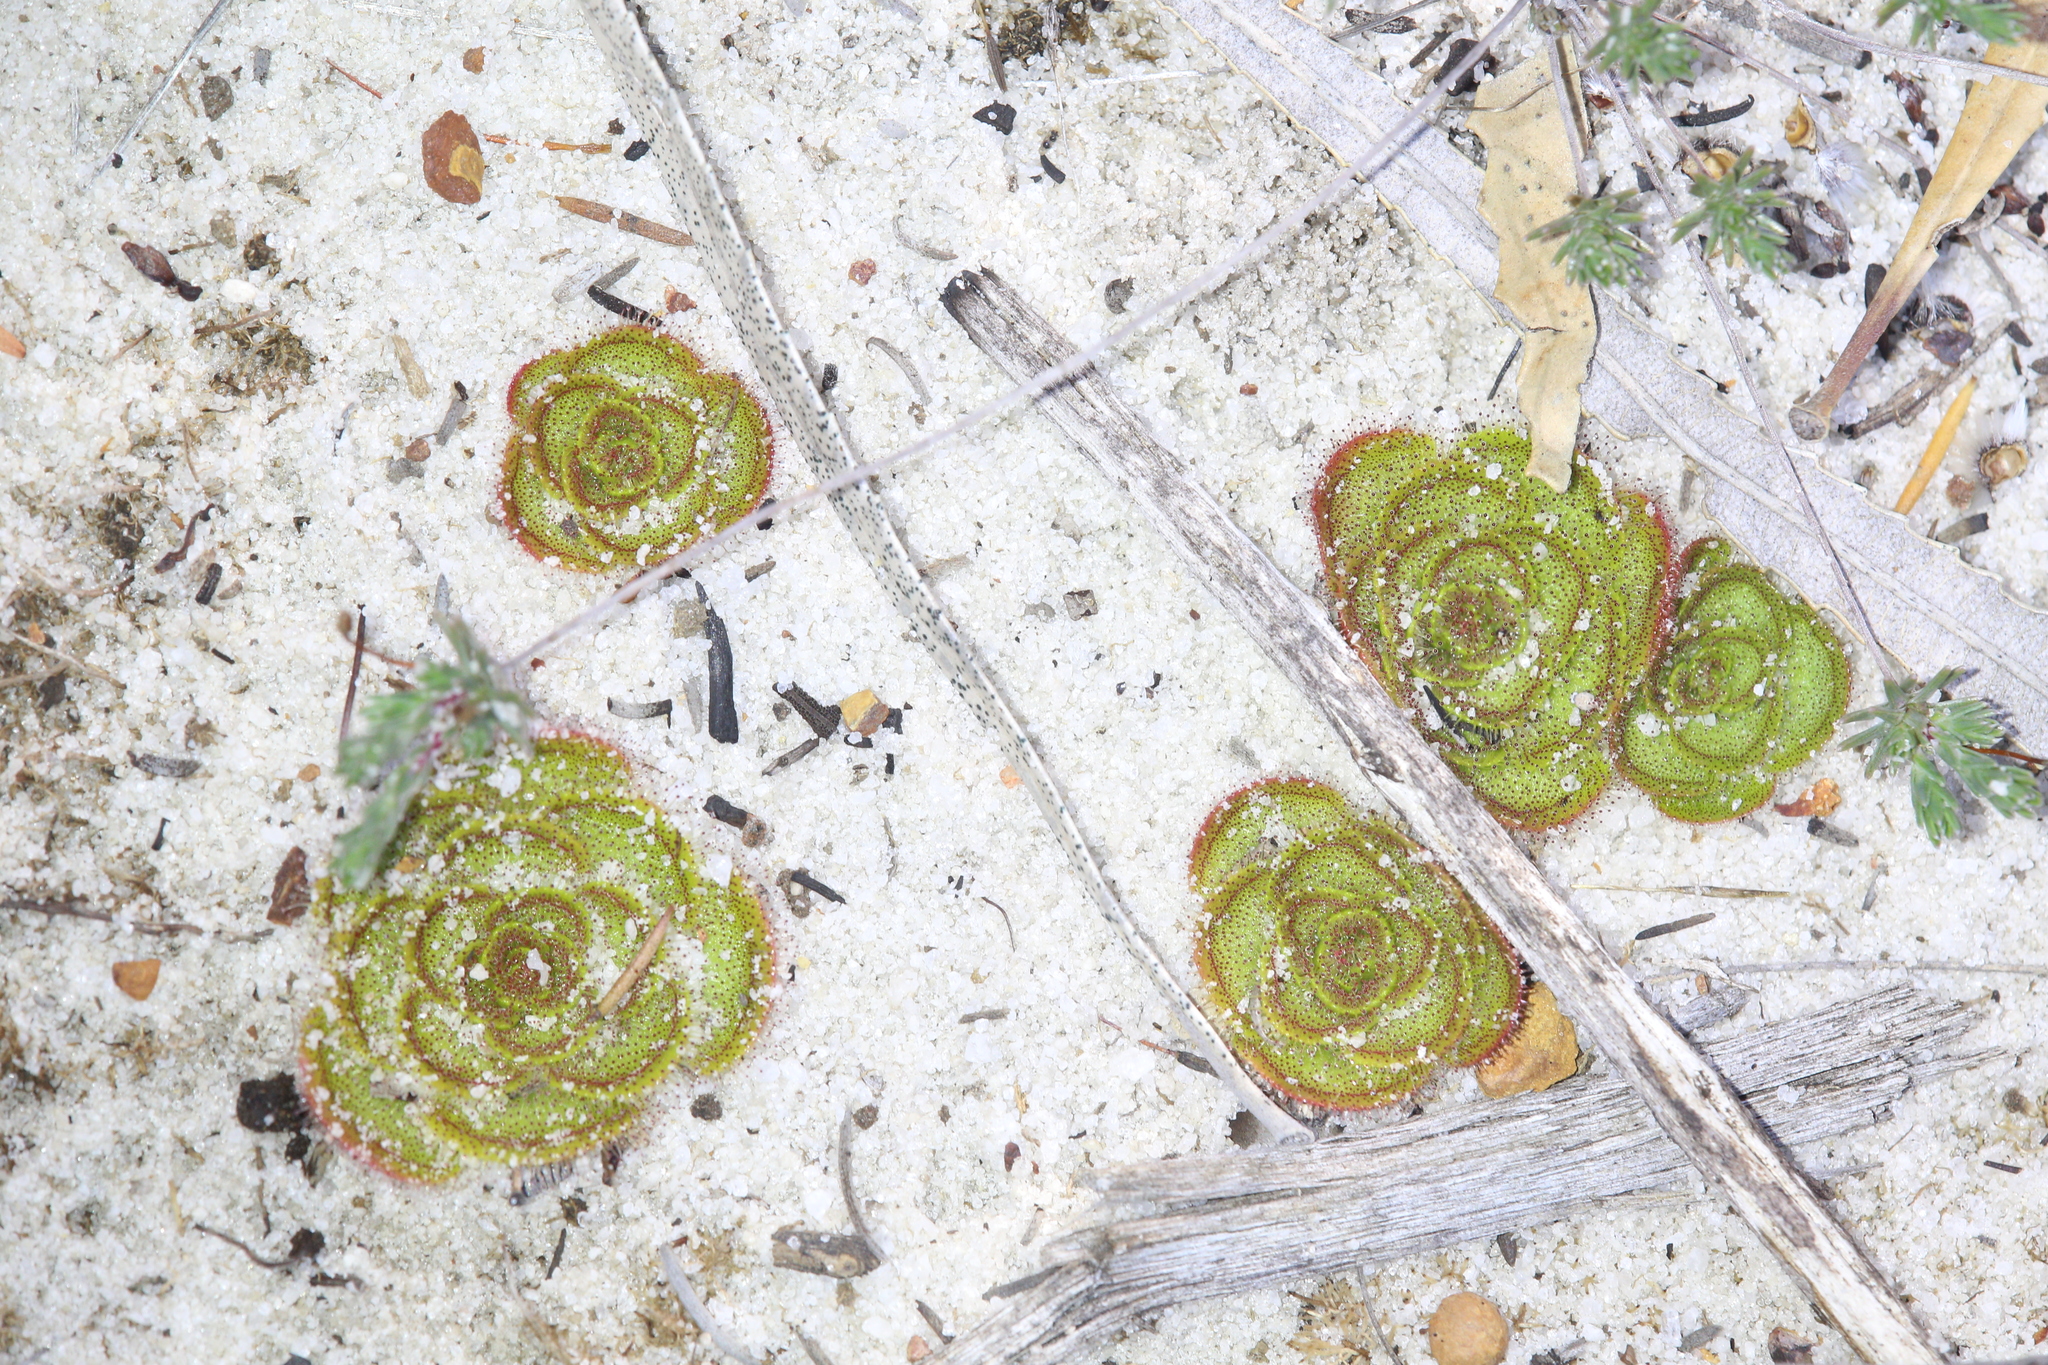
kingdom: Plantae
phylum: Tracheophyta
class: Magnoliopsida
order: Caryophyllales
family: Droseraceae
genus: Drosera
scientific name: Drosera zonaria
